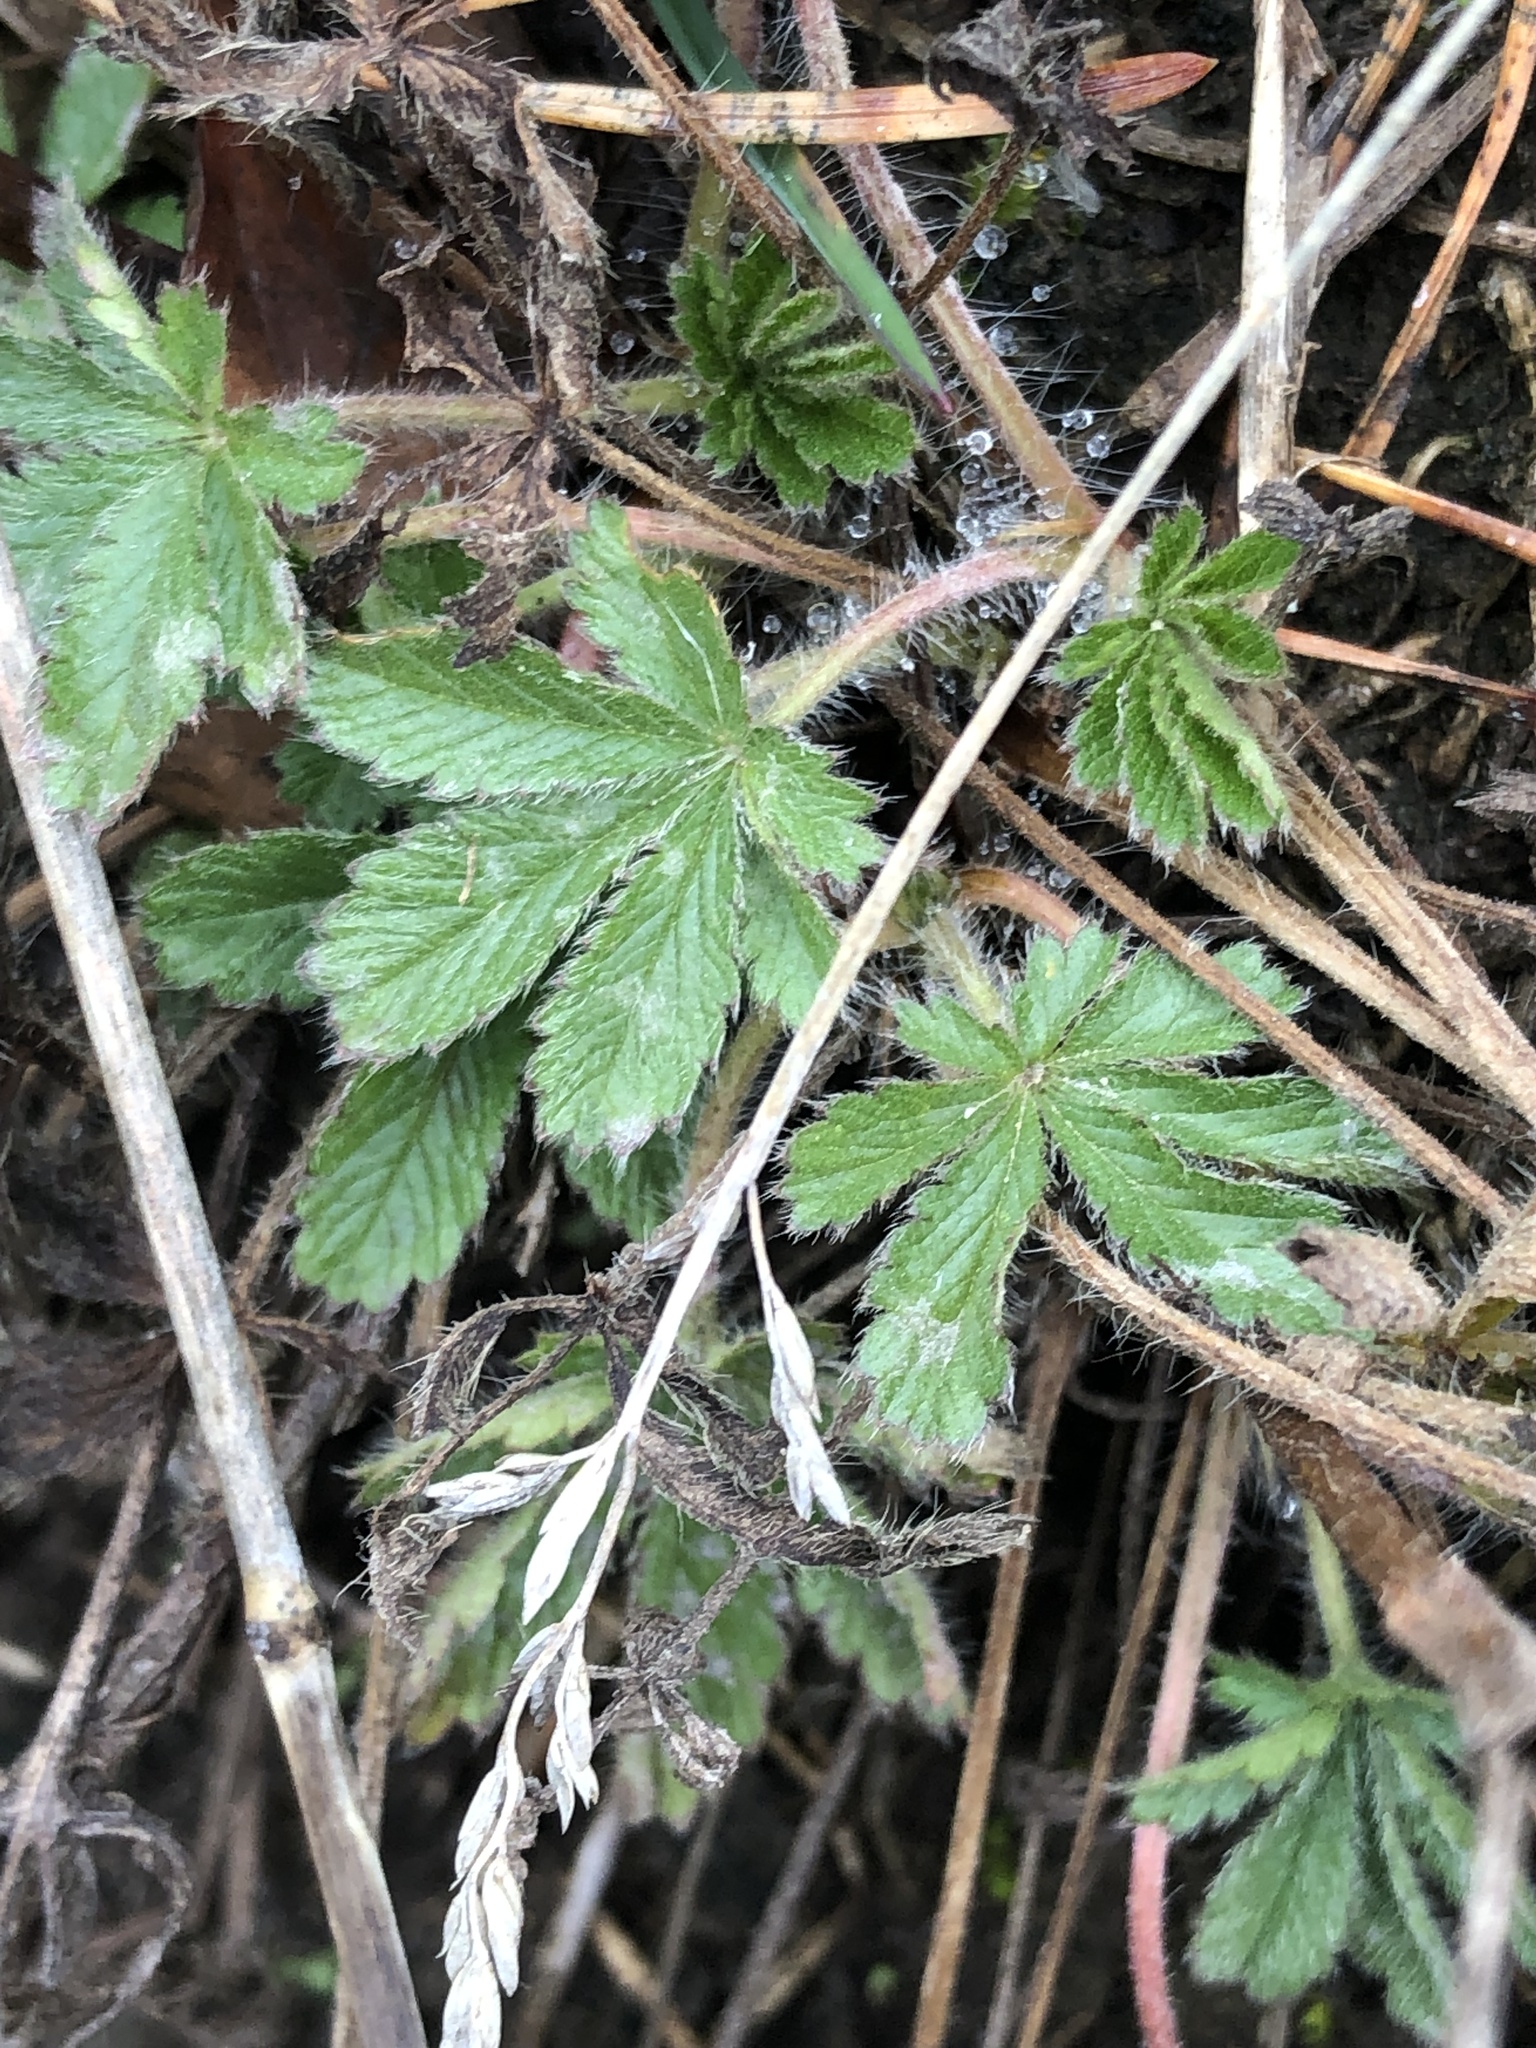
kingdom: Plantae
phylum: Tracheophyta
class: Magnoliopsida
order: Rosales
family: Rosaceae
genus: Potentilla
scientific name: Potentilla recta
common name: Sulphur cinquefoil
